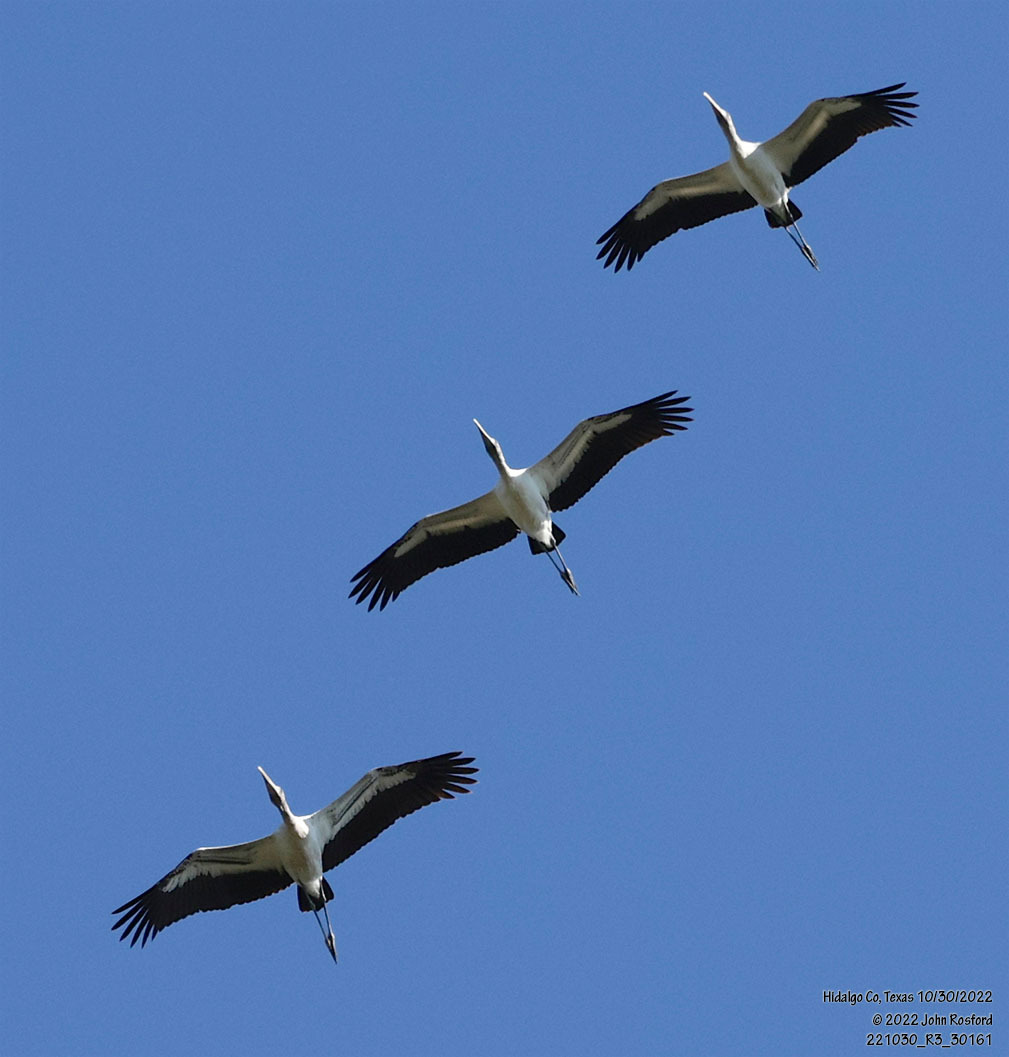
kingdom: Animalia
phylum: Chordata
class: Aves
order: Ciconiiformes
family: Ciconiidae
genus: Mycteria
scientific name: Mycteria americana
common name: Wood stork
